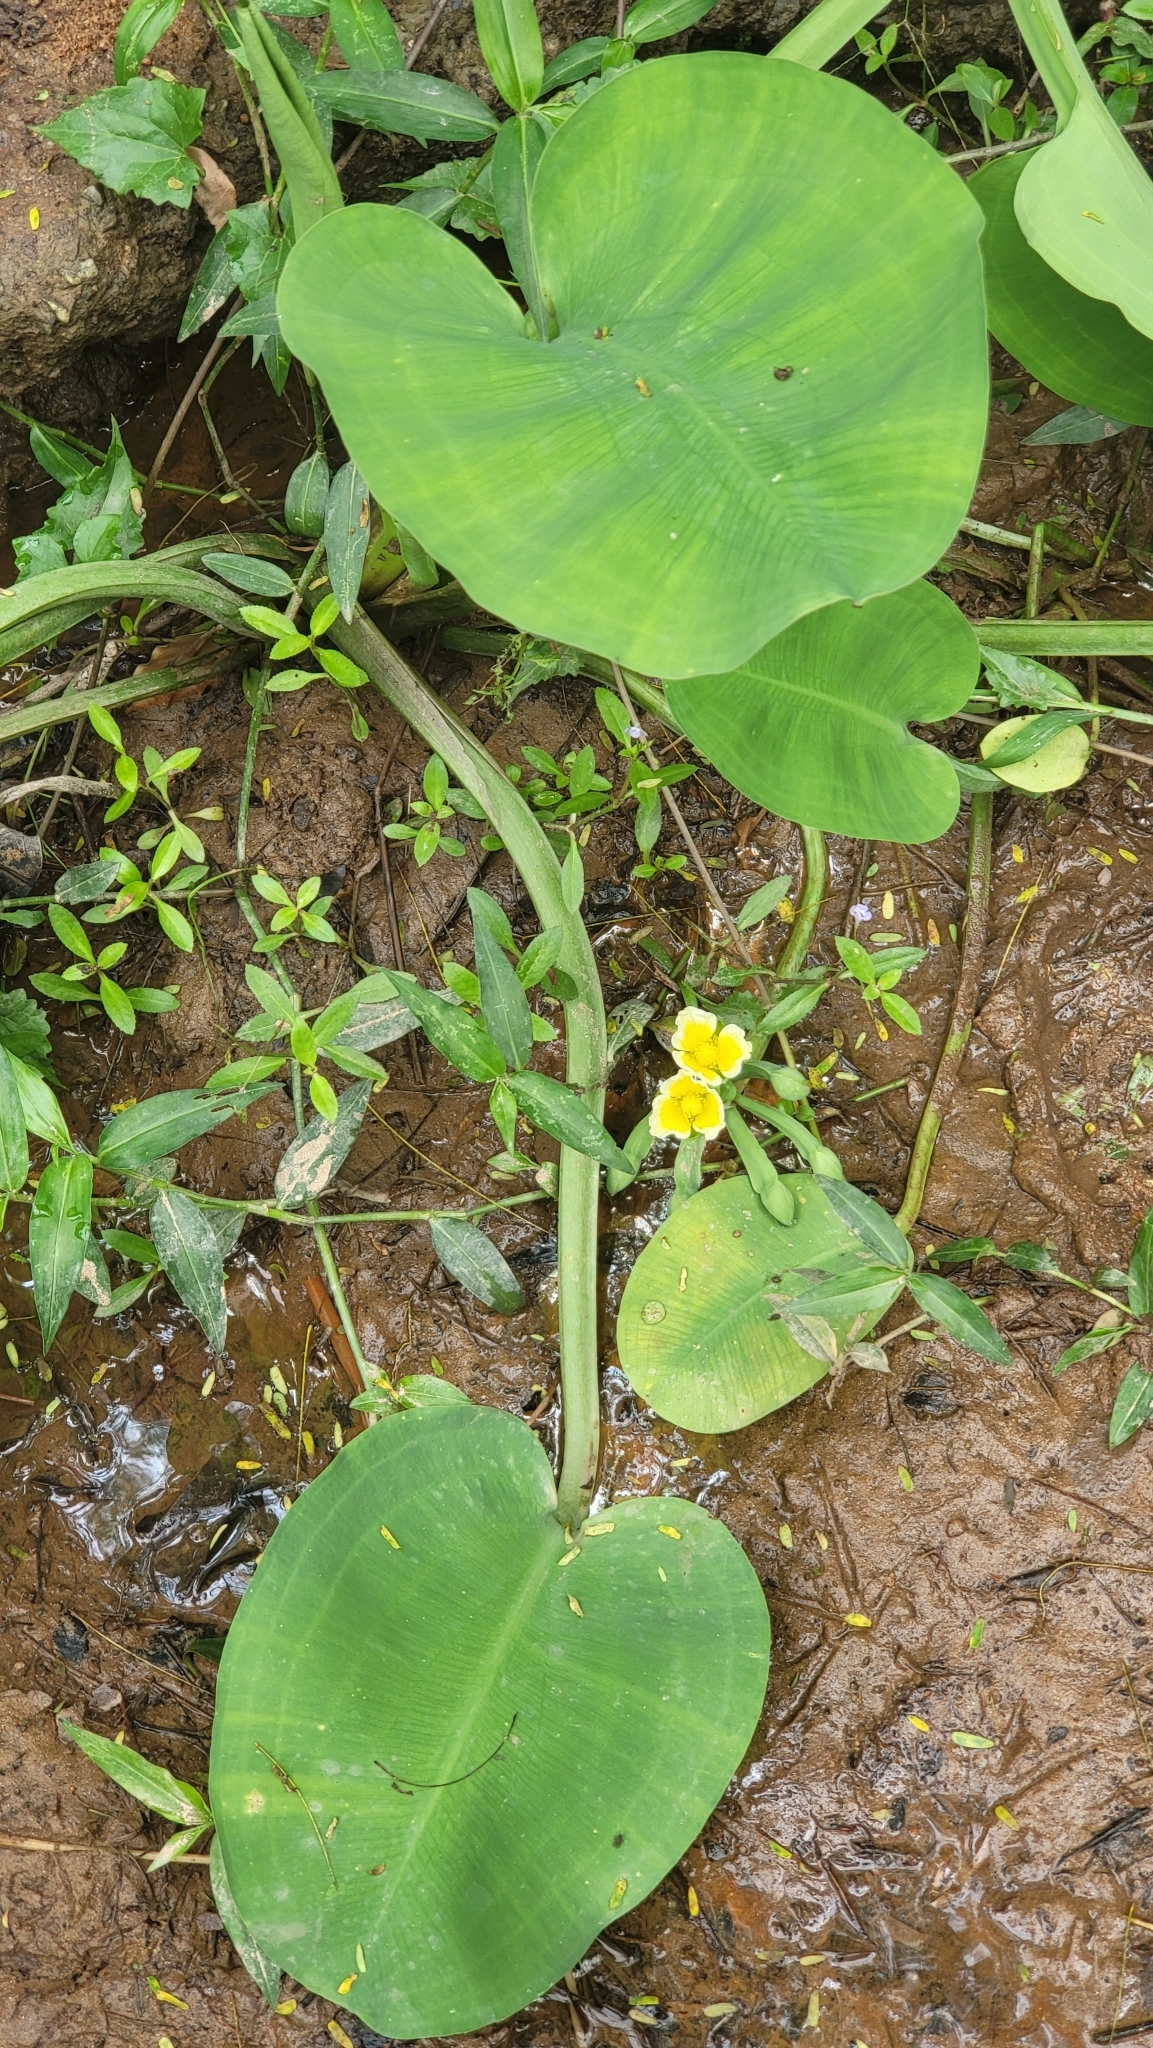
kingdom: Plantae
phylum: Tracheophyta
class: Liliopsida
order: Alismatales
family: Alismataceae
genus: Limnocharis
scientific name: Limnocharis flava
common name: Sawah-flower-rush
